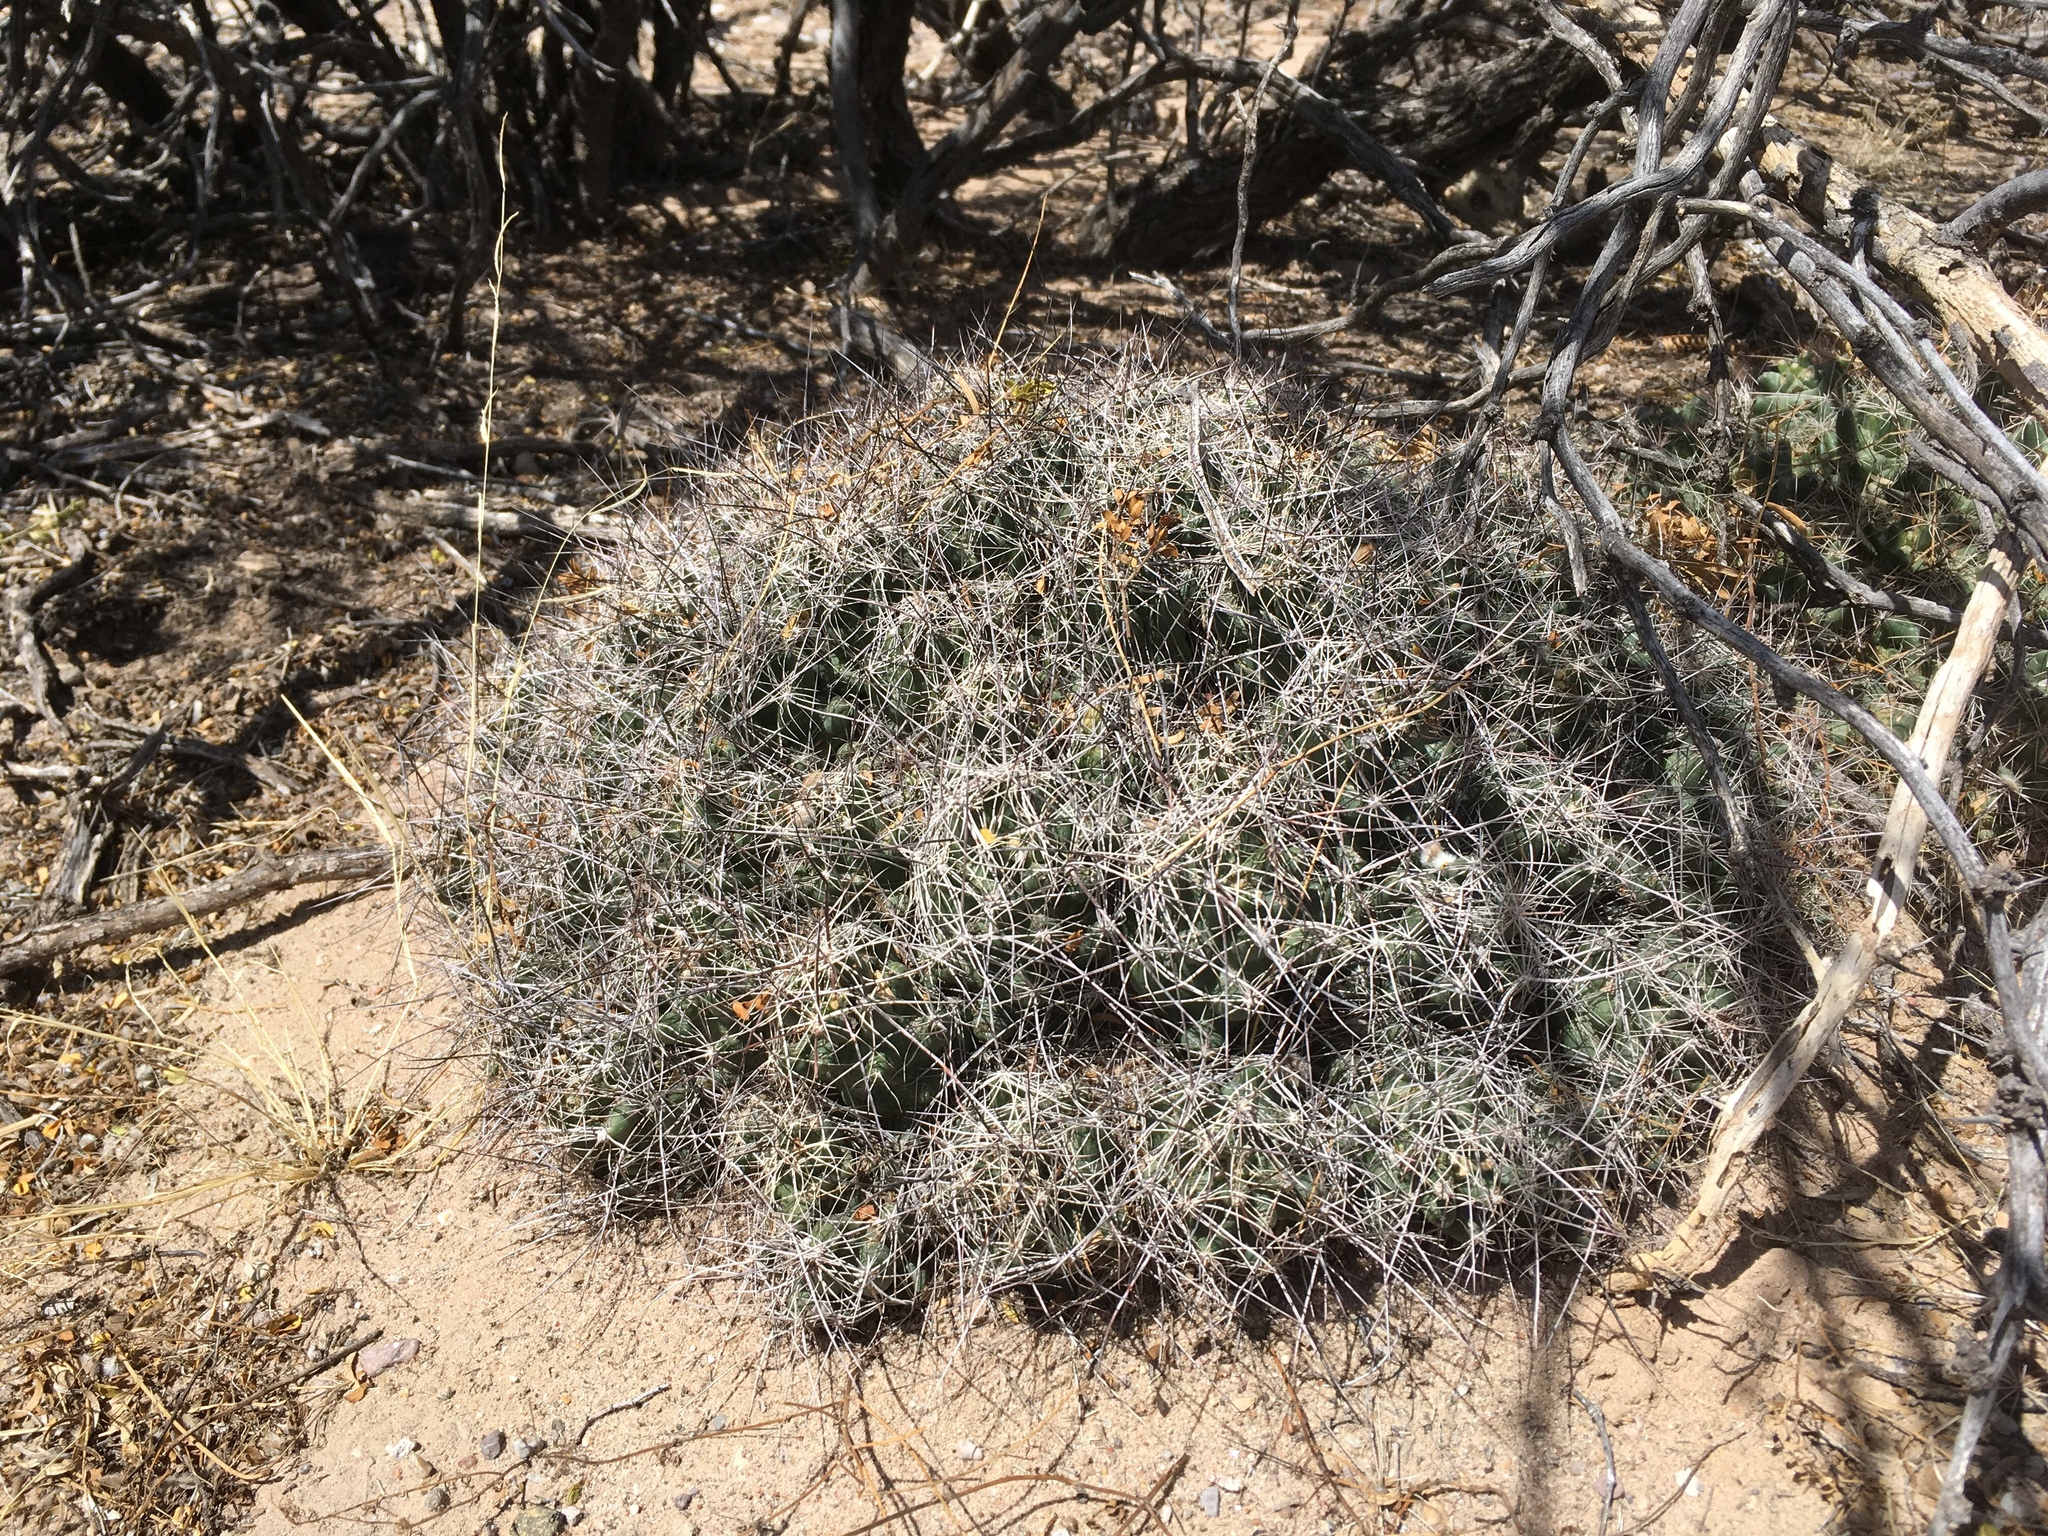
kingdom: Plantae
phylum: Tracheophyta
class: Magnoliopsida
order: Caryophyllales
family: Cactaceae
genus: Coryphantha
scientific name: Coryphantha macromeris
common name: Nipple beehive cactus
